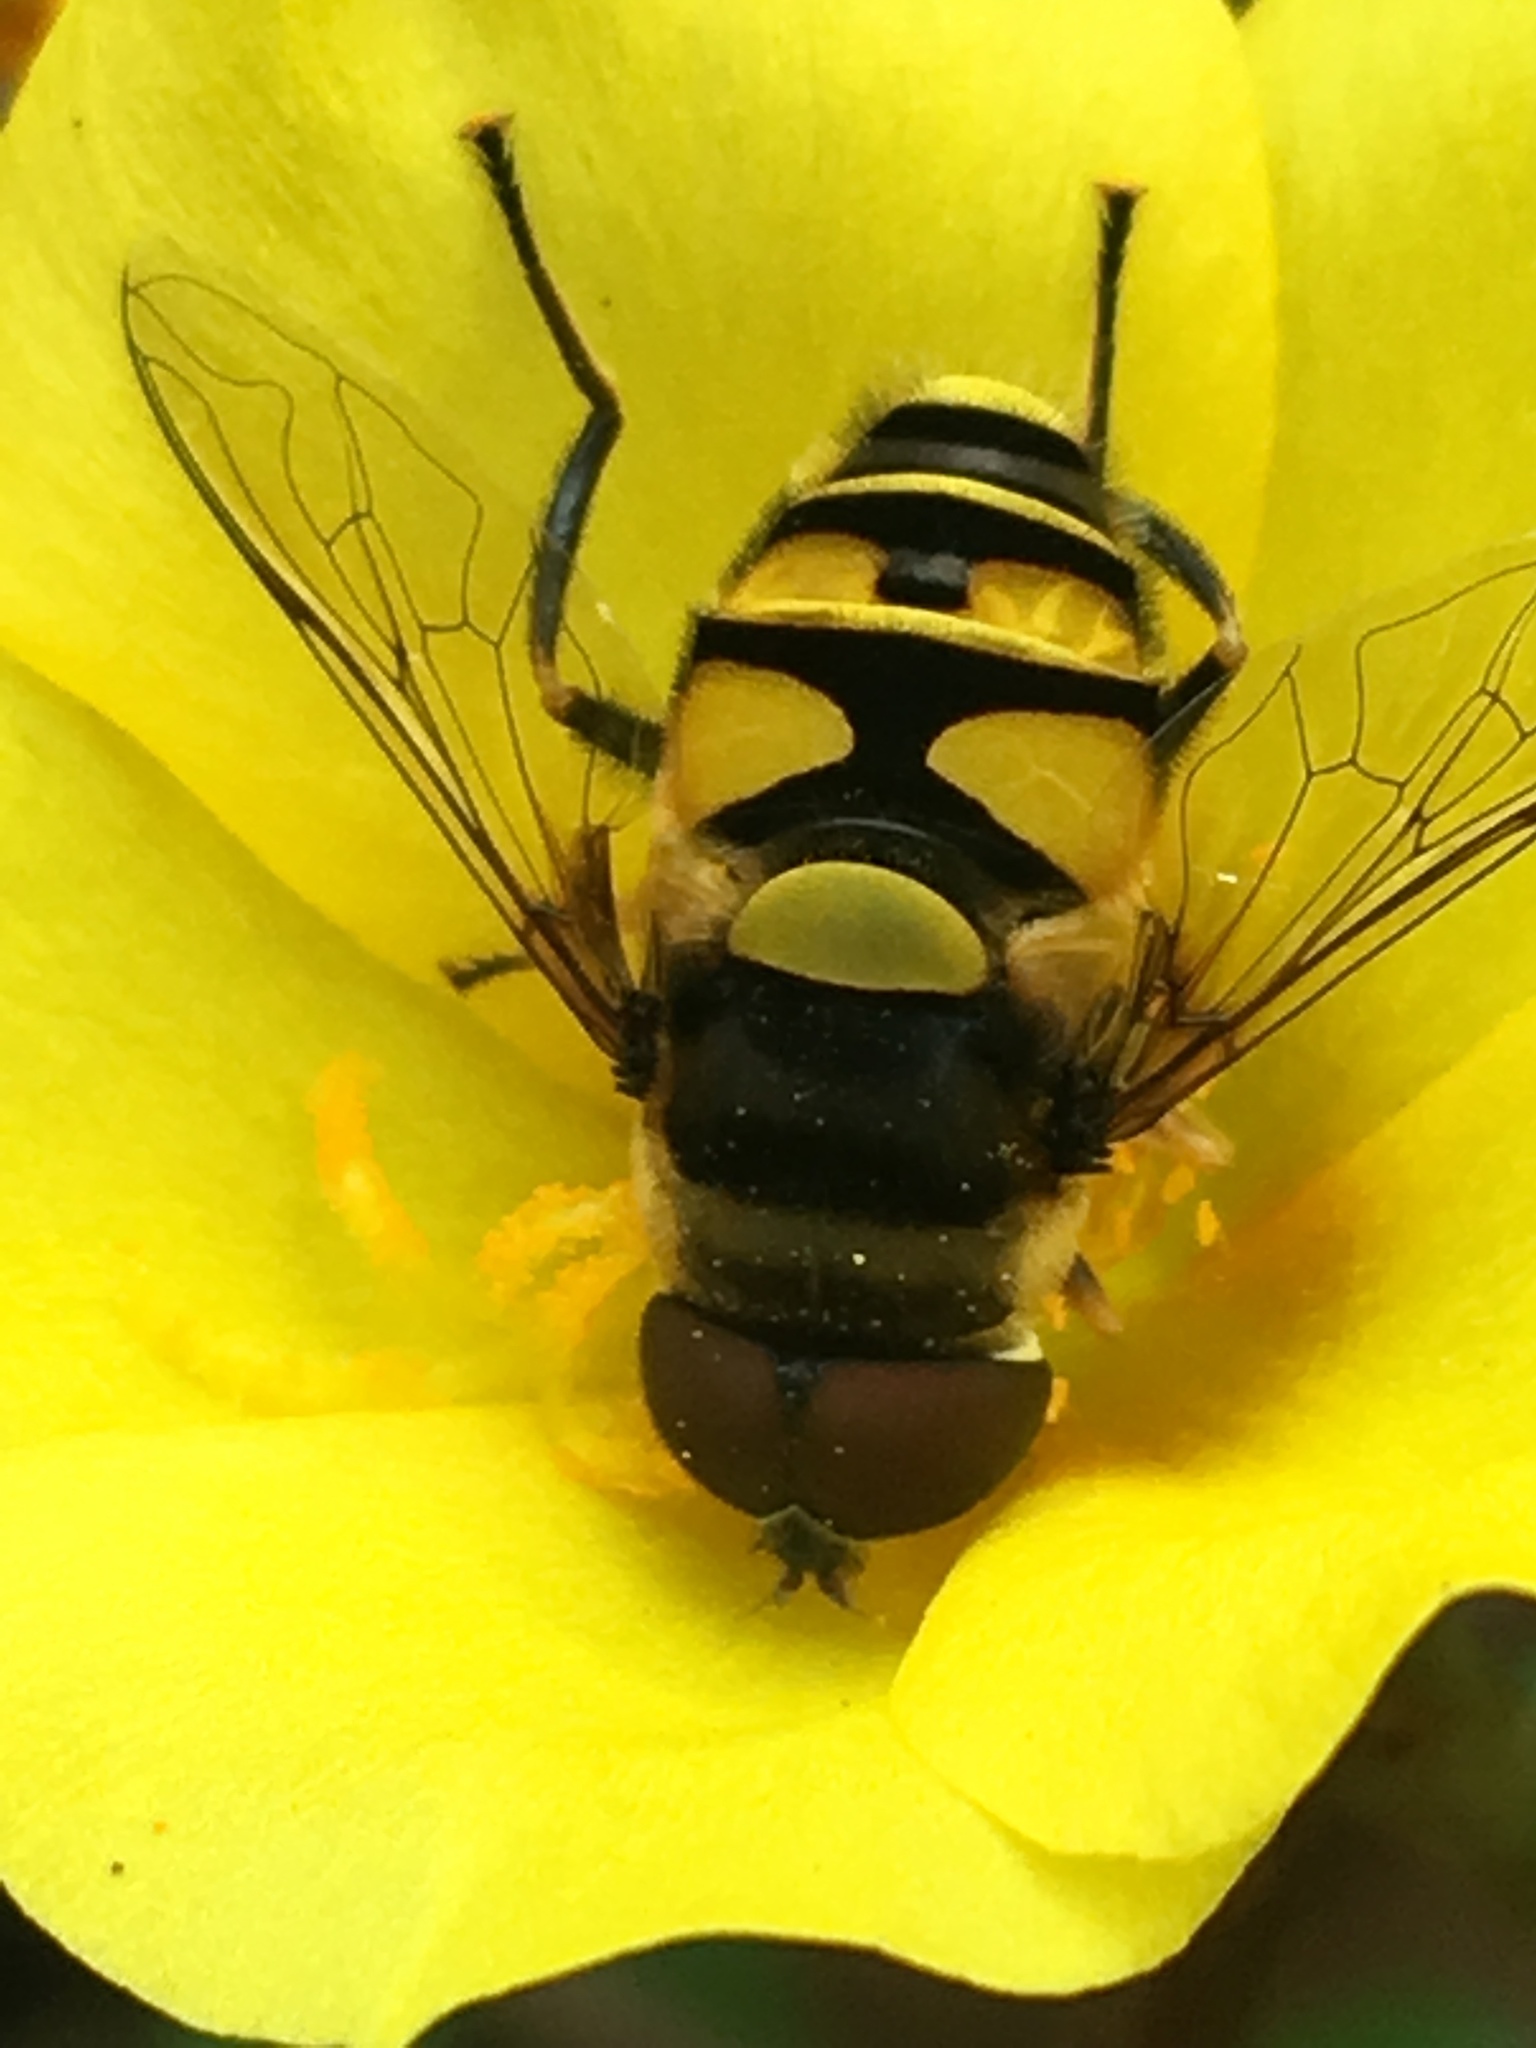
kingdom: Animalia
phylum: Arthropoda
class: Insecta
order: Diptera
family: Syrphidae
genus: Eristalis
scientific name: Eristalis transversa
